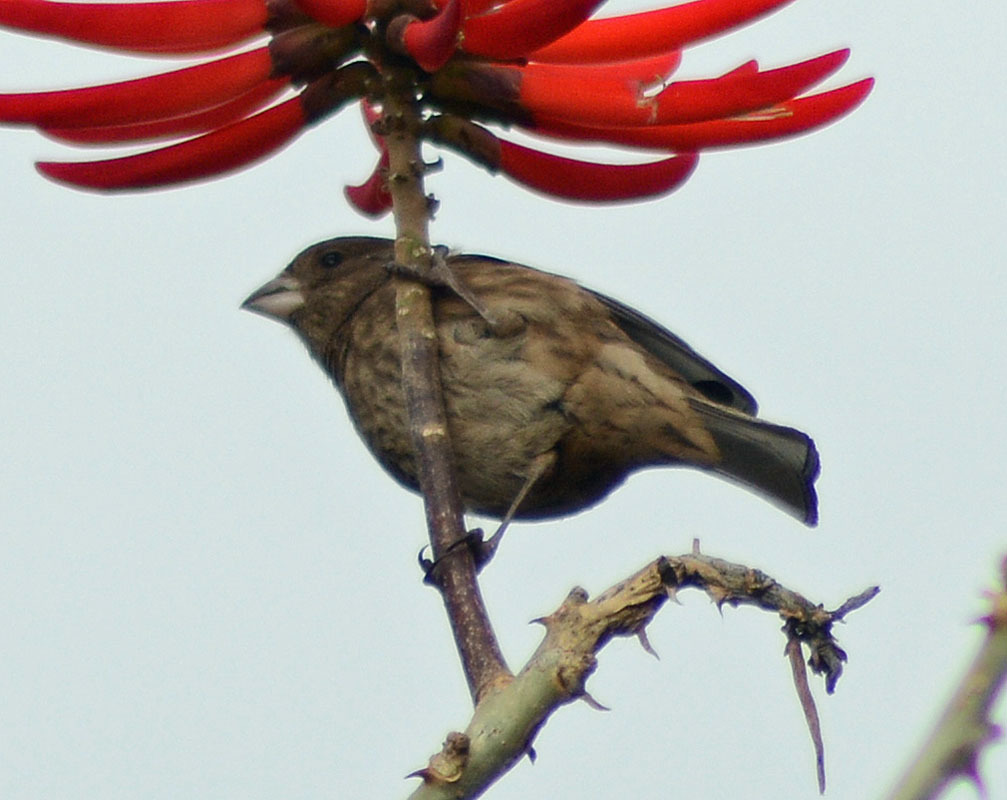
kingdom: Animalia
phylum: Chordata
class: Aves
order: Passeriformes
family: Fringillidae
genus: Haemorhous
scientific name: Haemorhous mexicanus
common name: House finch
